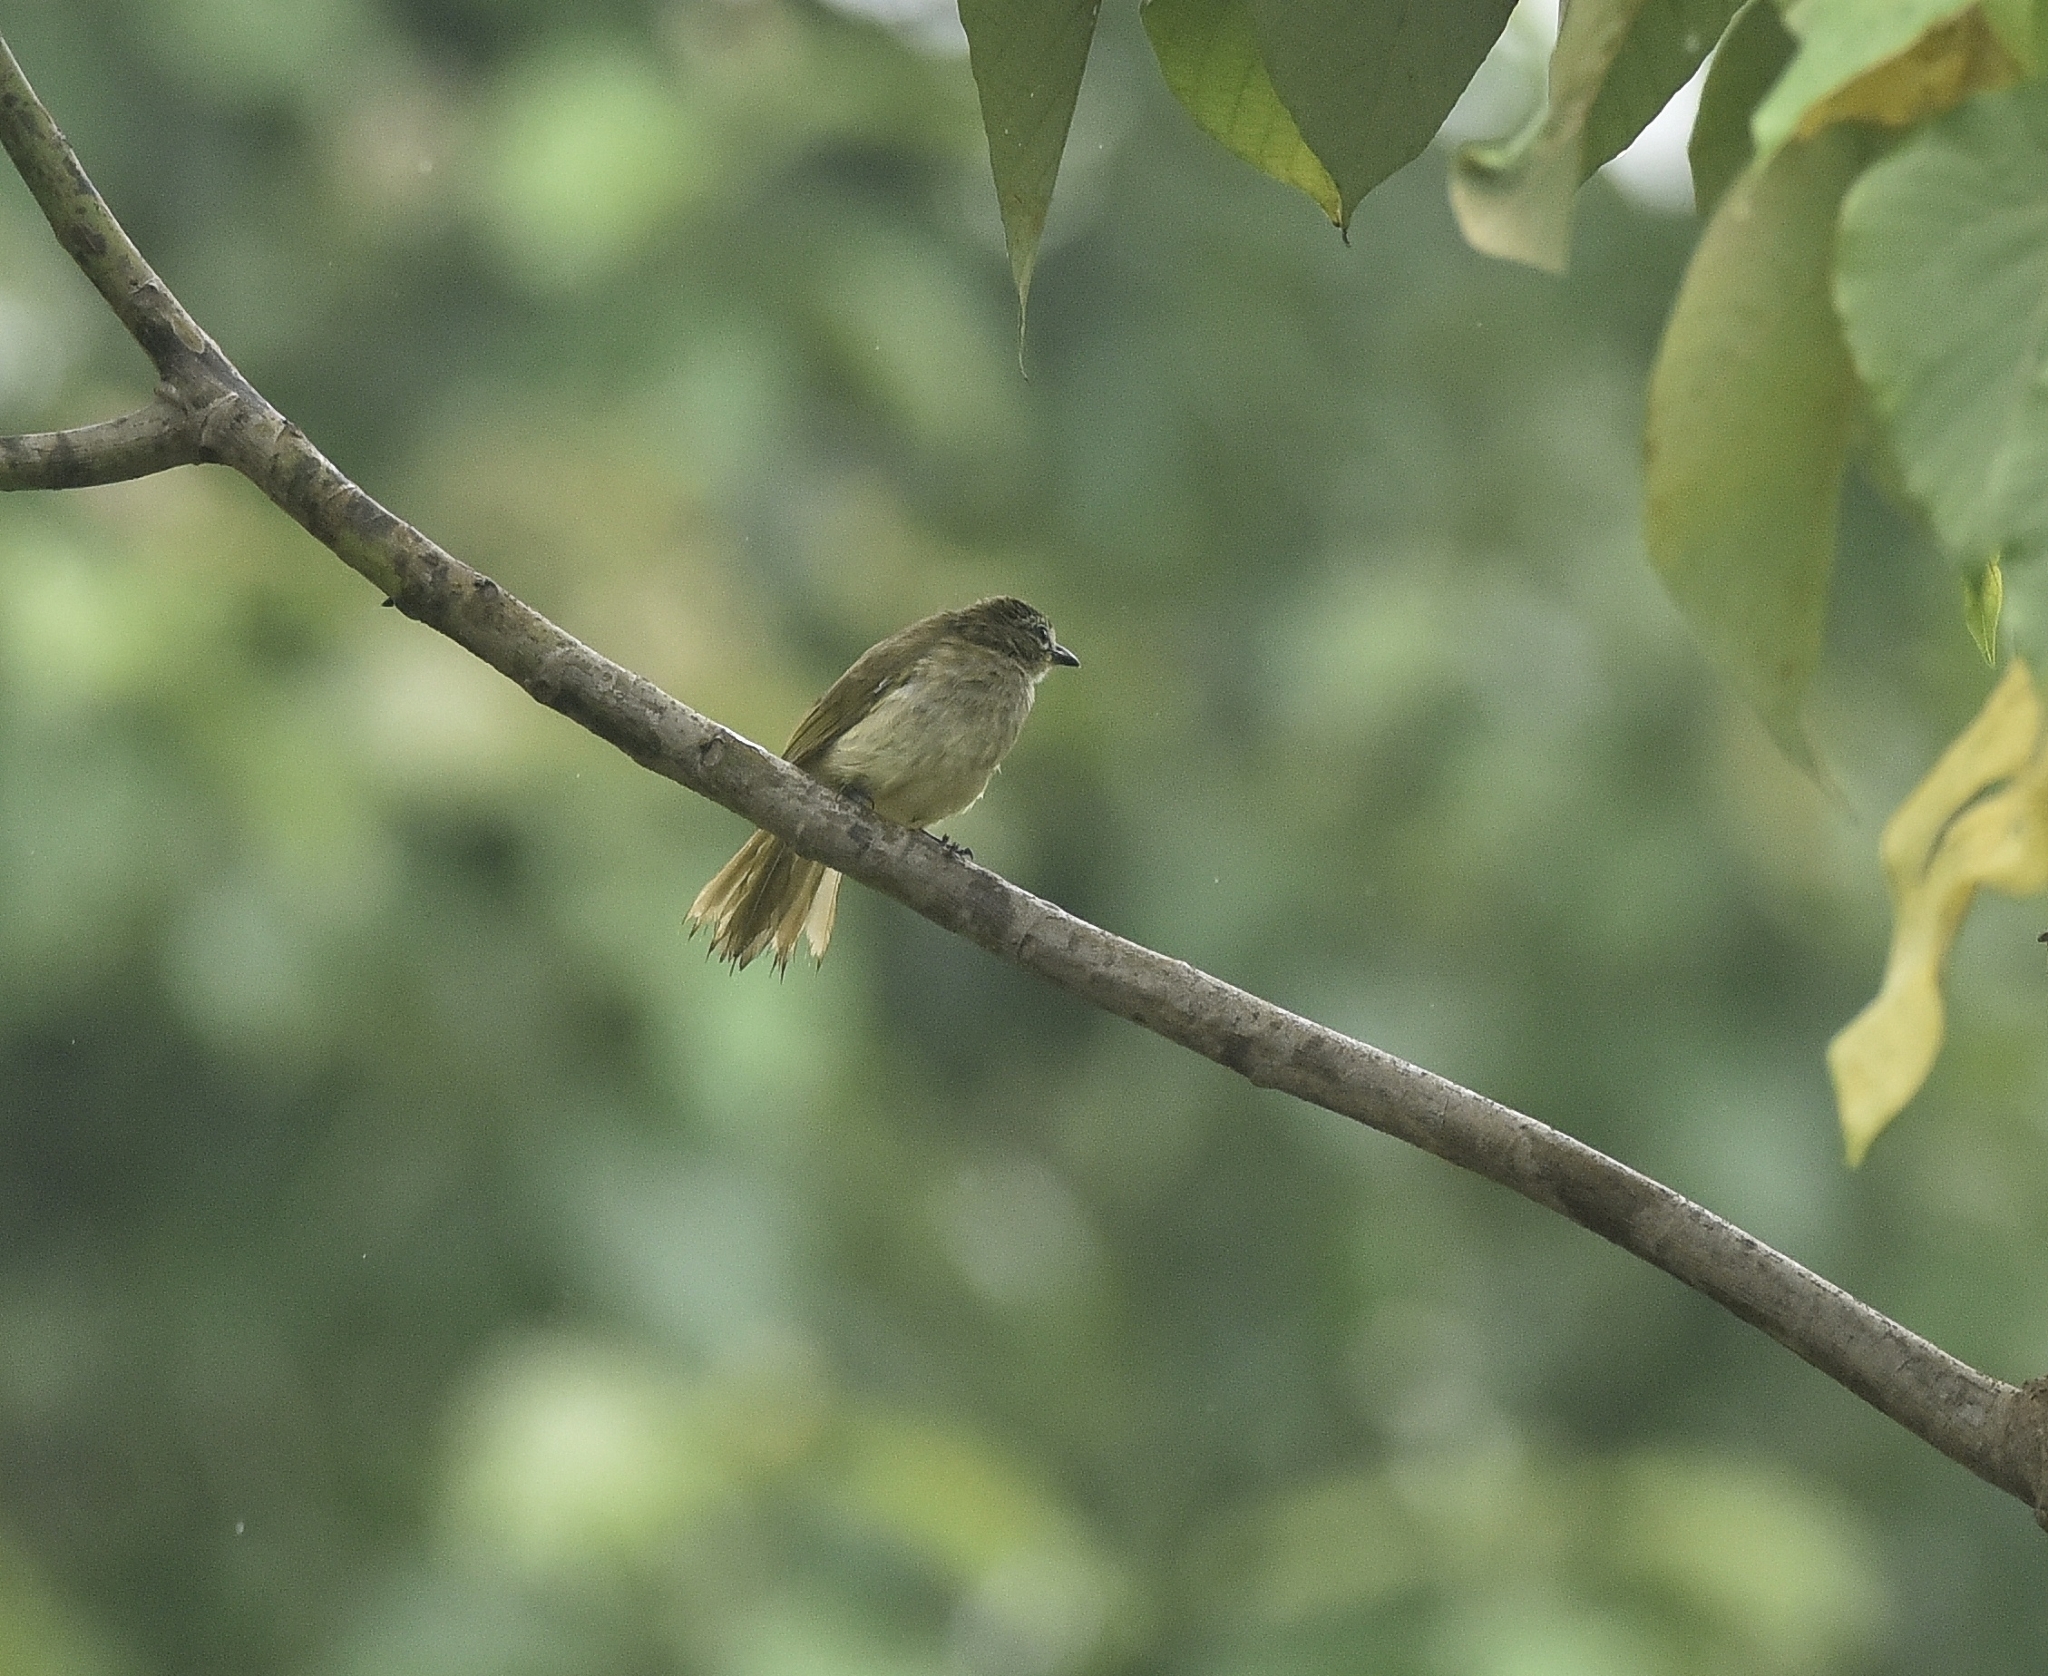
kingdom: Animalia
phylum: Chordata
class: Aves
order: Passeriformes
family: Pycnonotidae
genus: Pycnonotus
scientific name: Pycnonotus luteolus
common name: White-browed bulbul
